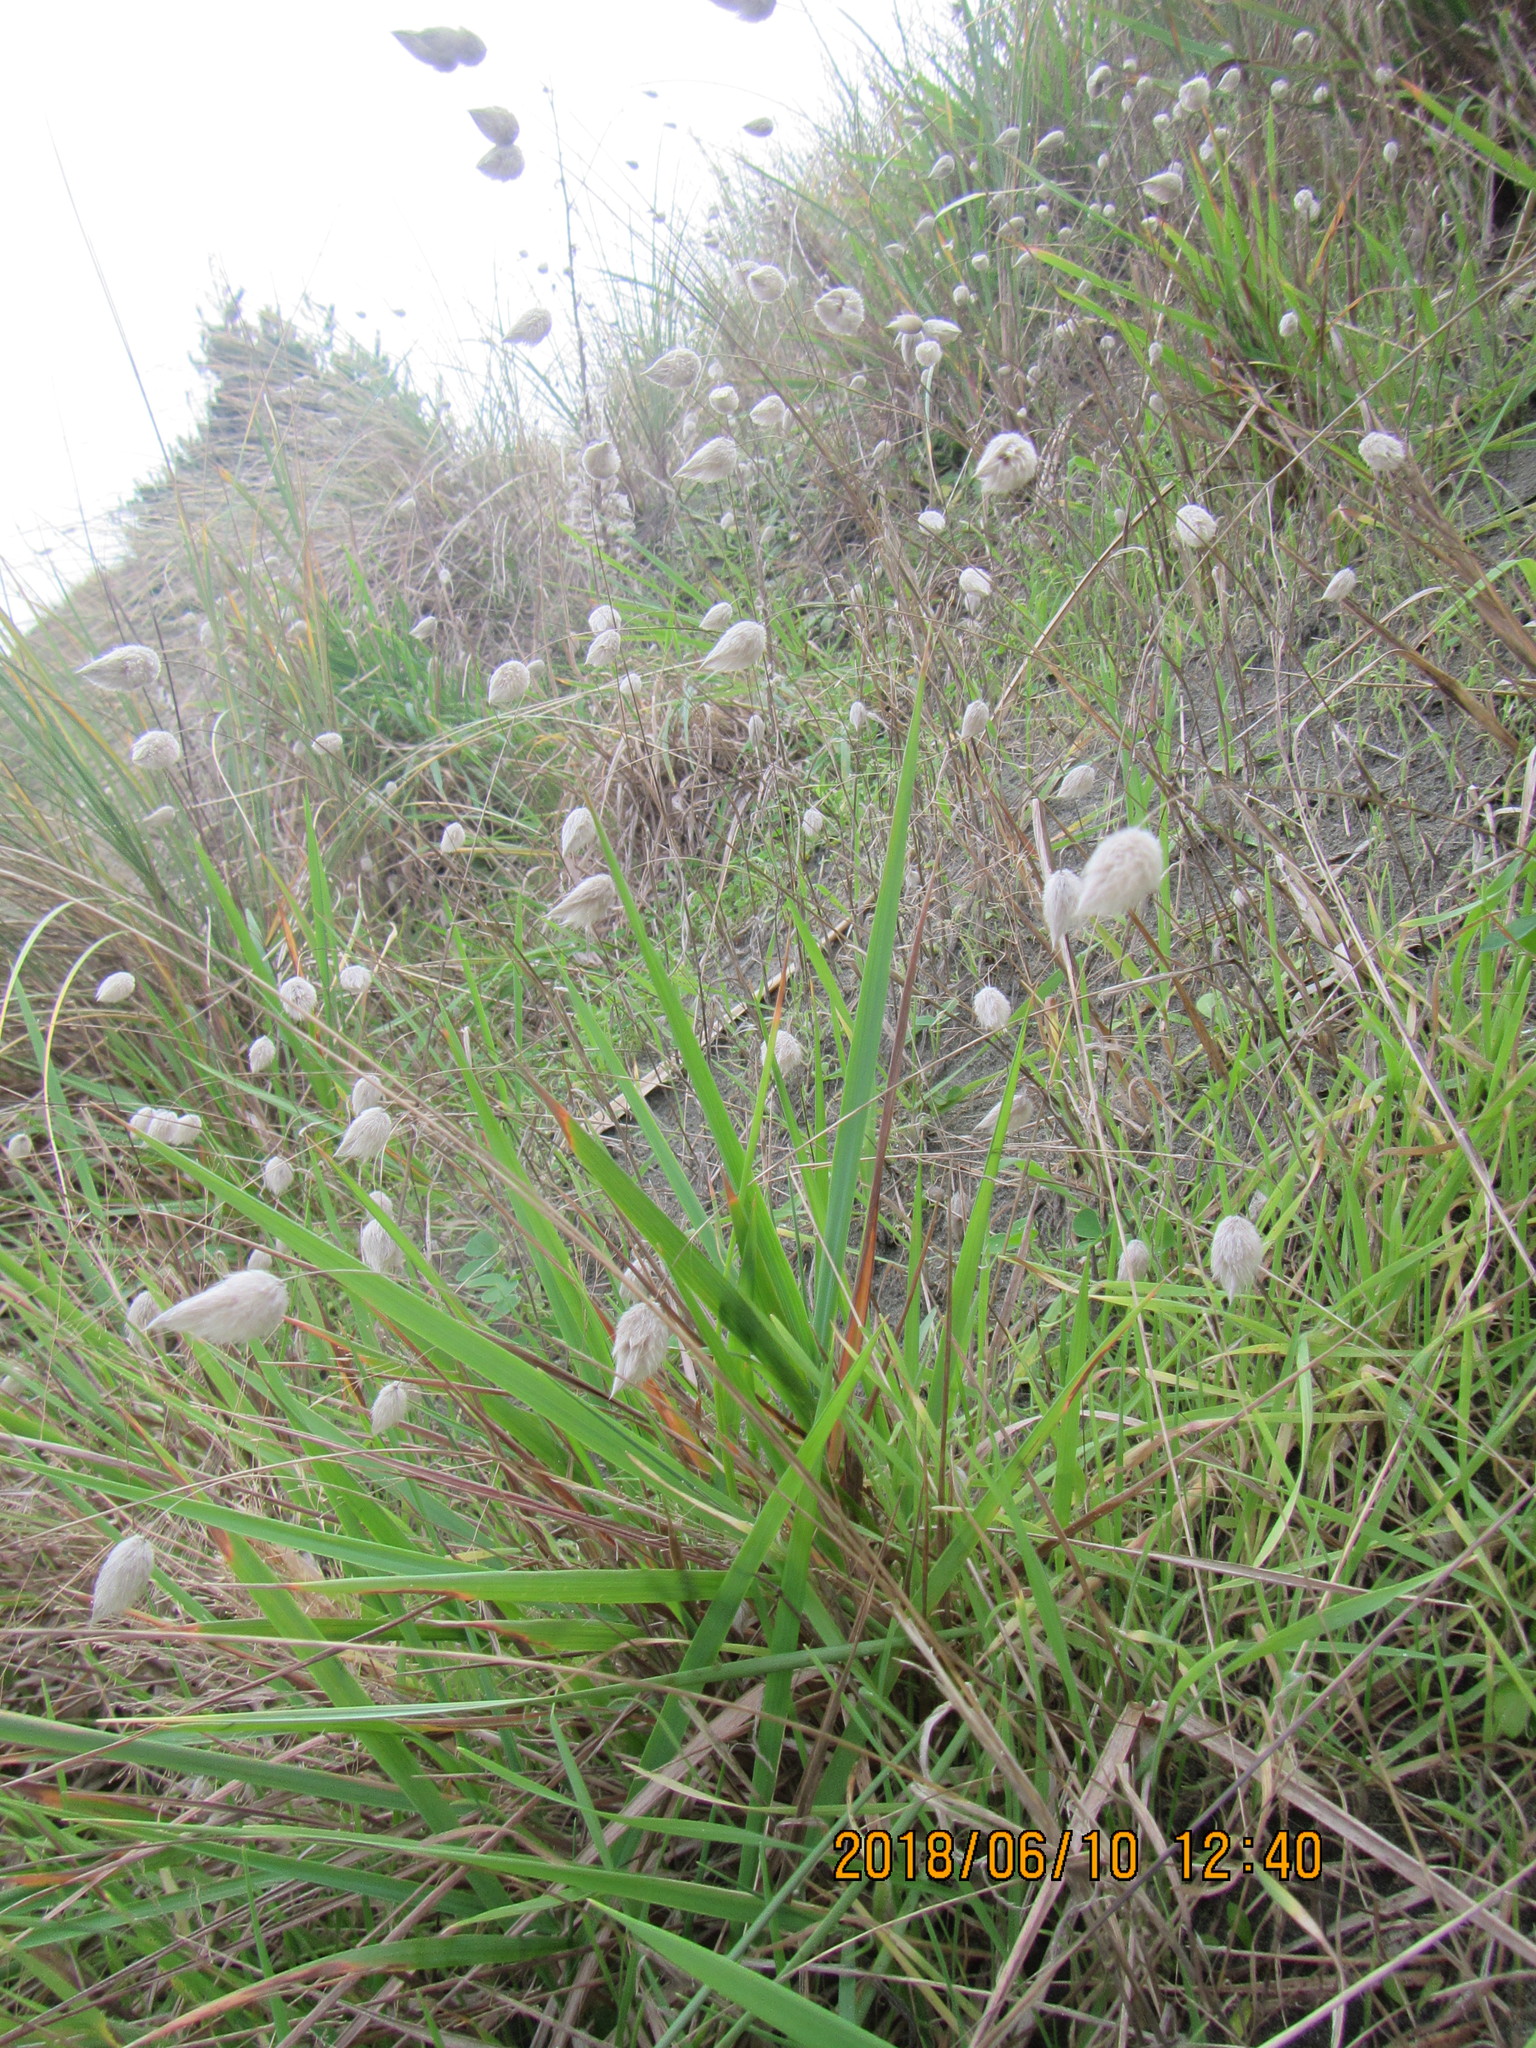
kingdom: Plantae
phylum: Tracheophyta
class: Liliopsida
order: Poales
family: Poaceae
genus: Lagurus
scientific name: Lagurus ovatus
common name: Hare's-tail
